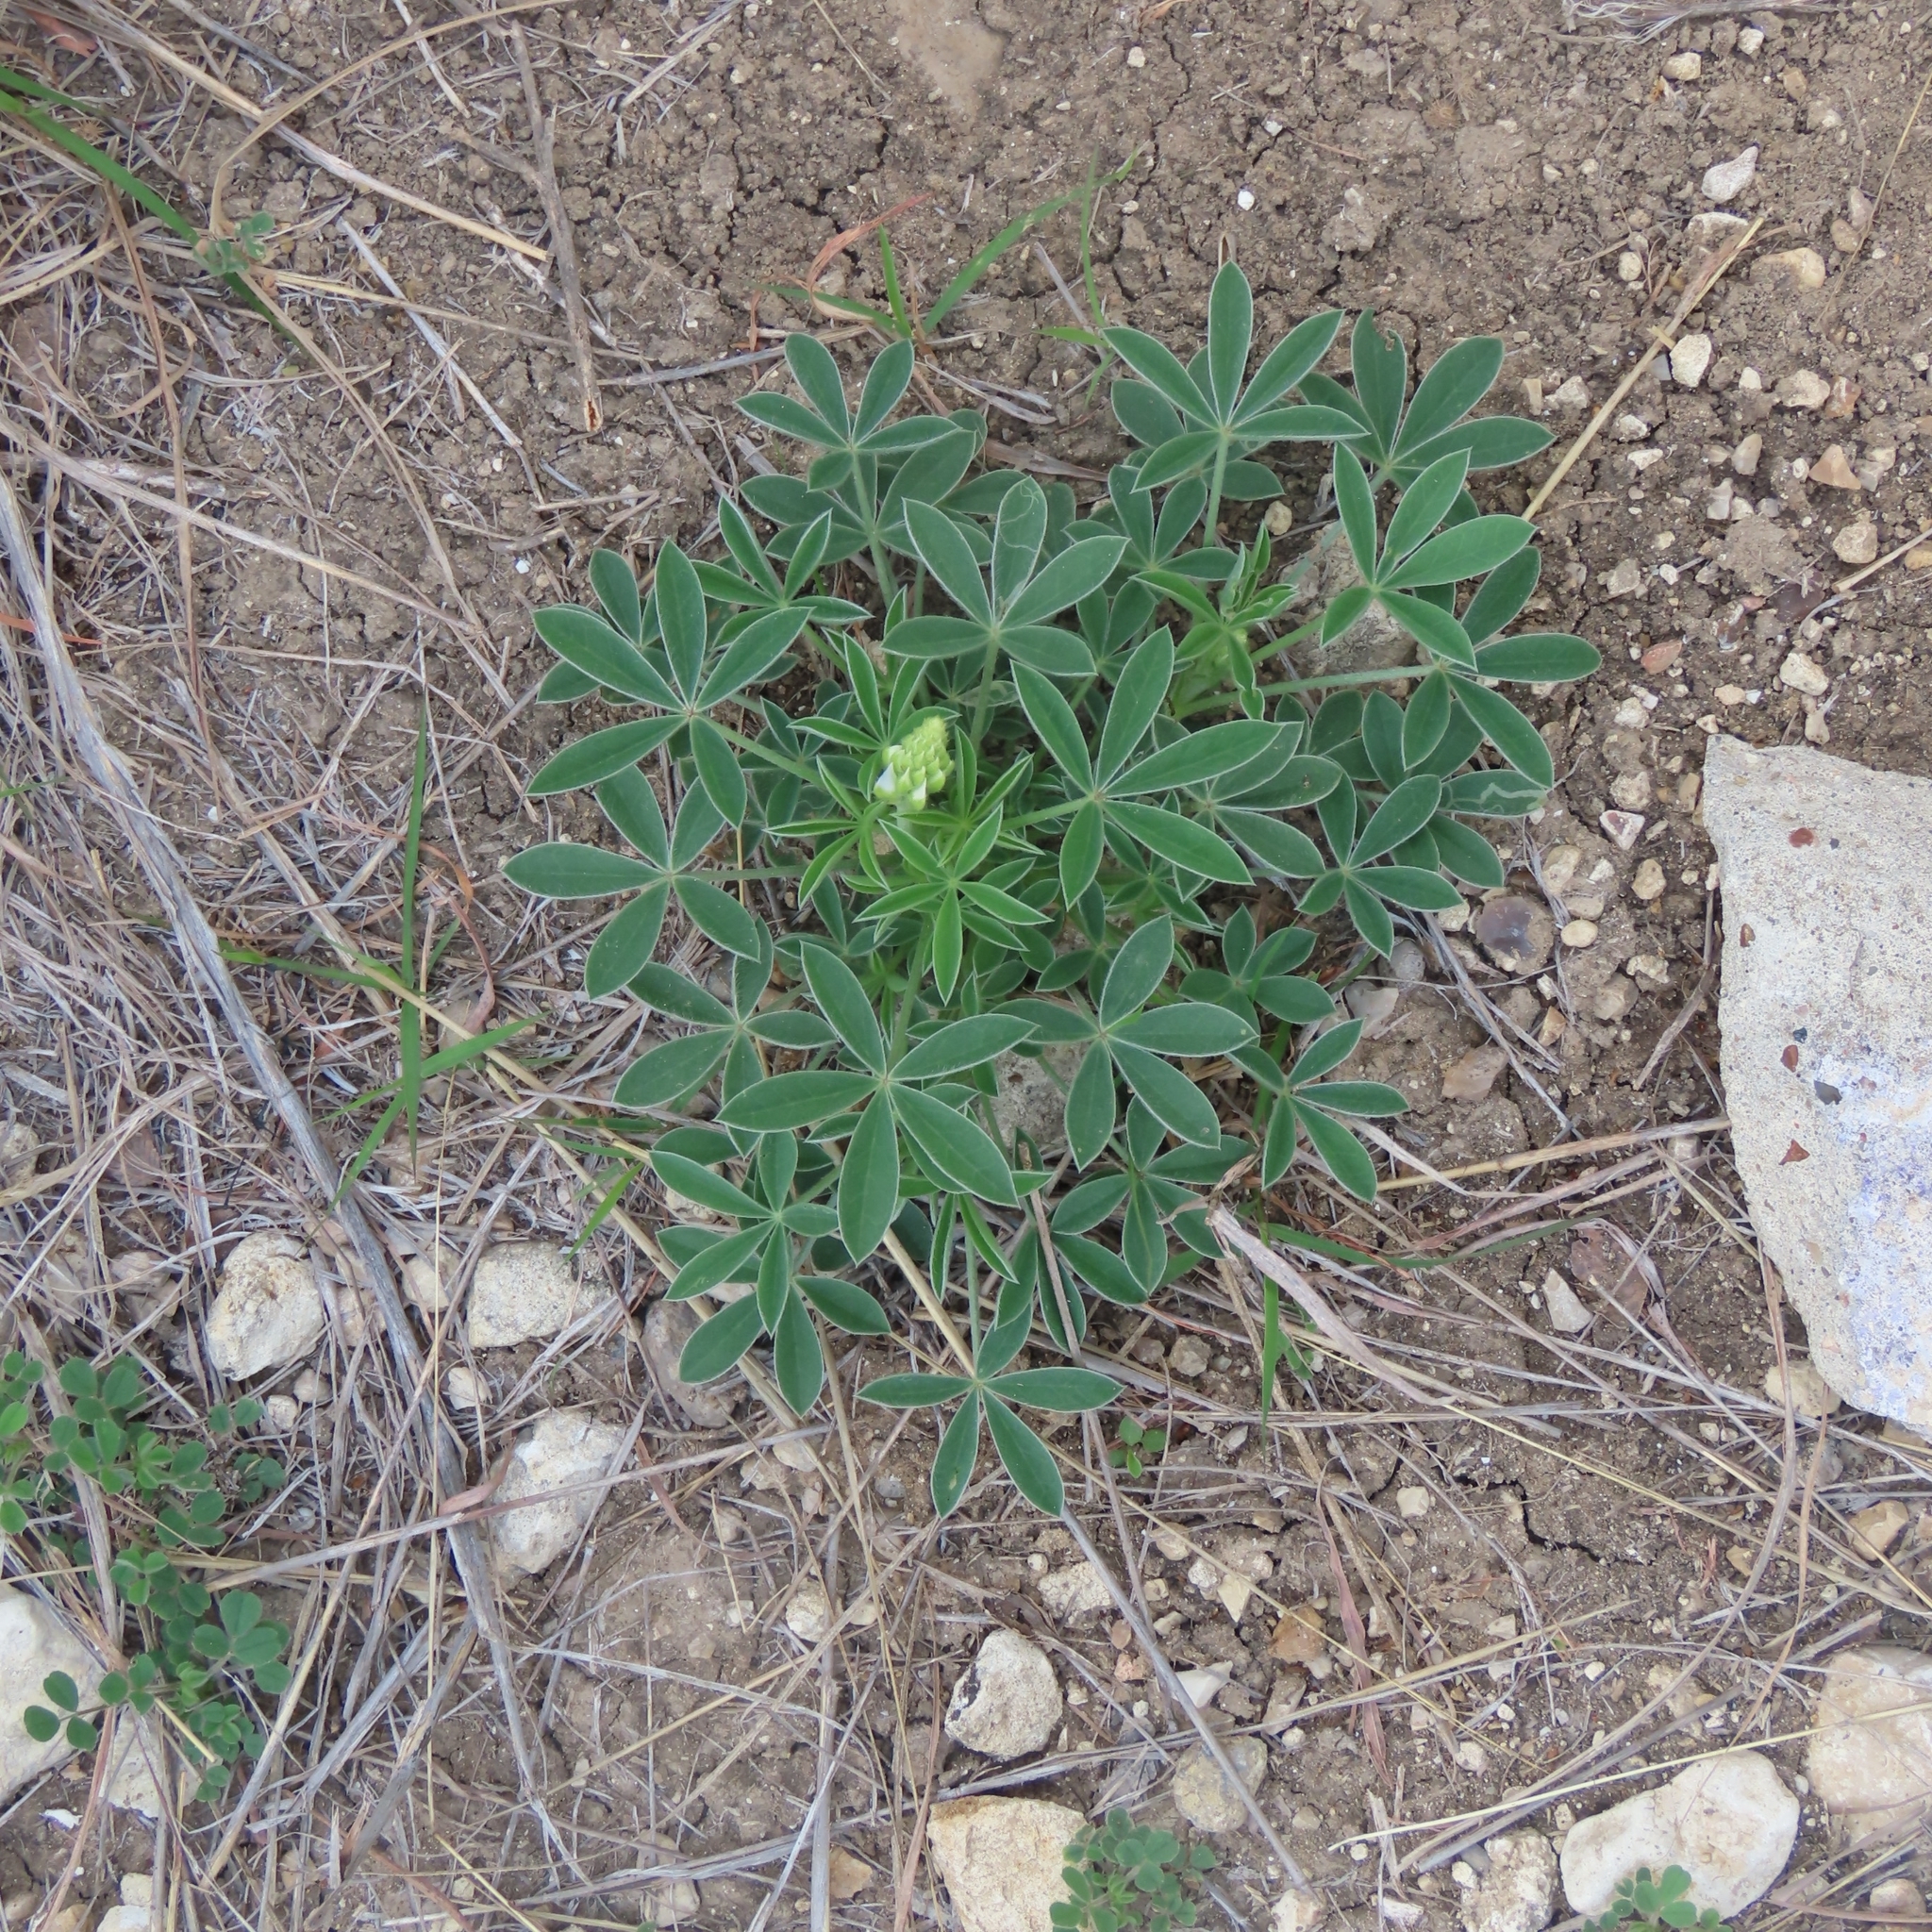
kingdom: Plantae
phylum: Tracheophyta
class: Magnoliopsida
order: Fabales
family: Fabaceae
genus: Lupinus
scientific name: Lupinus texensis
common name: Texas bluebonnet
